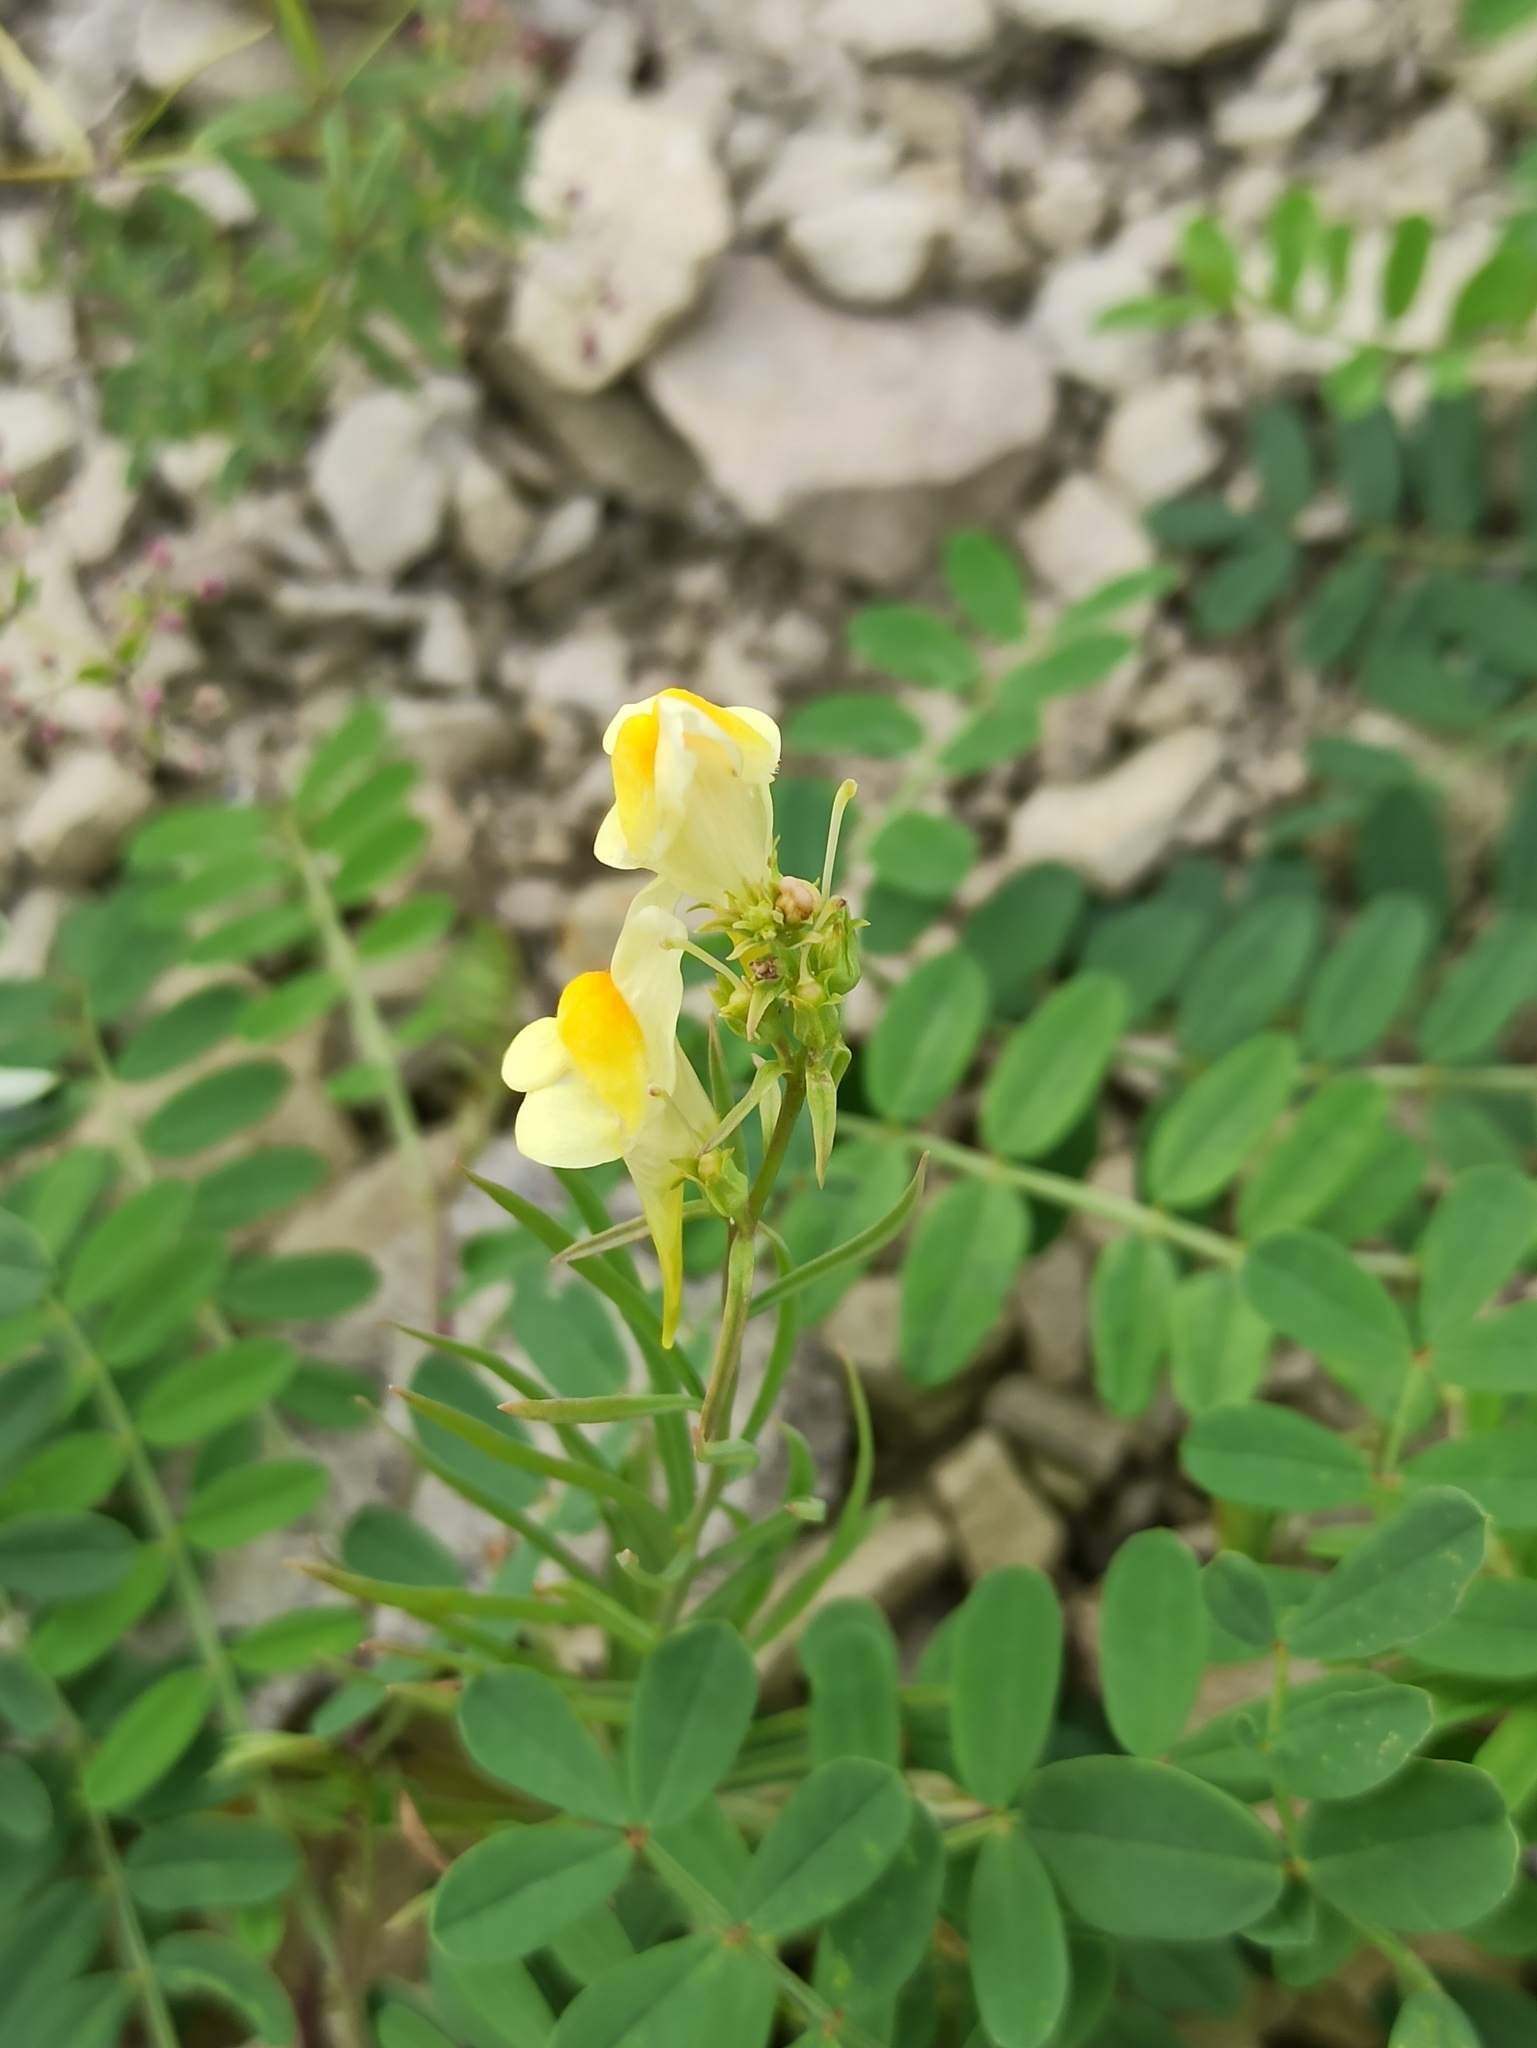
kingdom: Plantae
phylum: Tracheophyta
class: Magnoliopsida
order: Lamiales
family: Plantaginaceae
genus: Linaria
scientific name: Linaria vulgaris
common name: Butter and eggs
